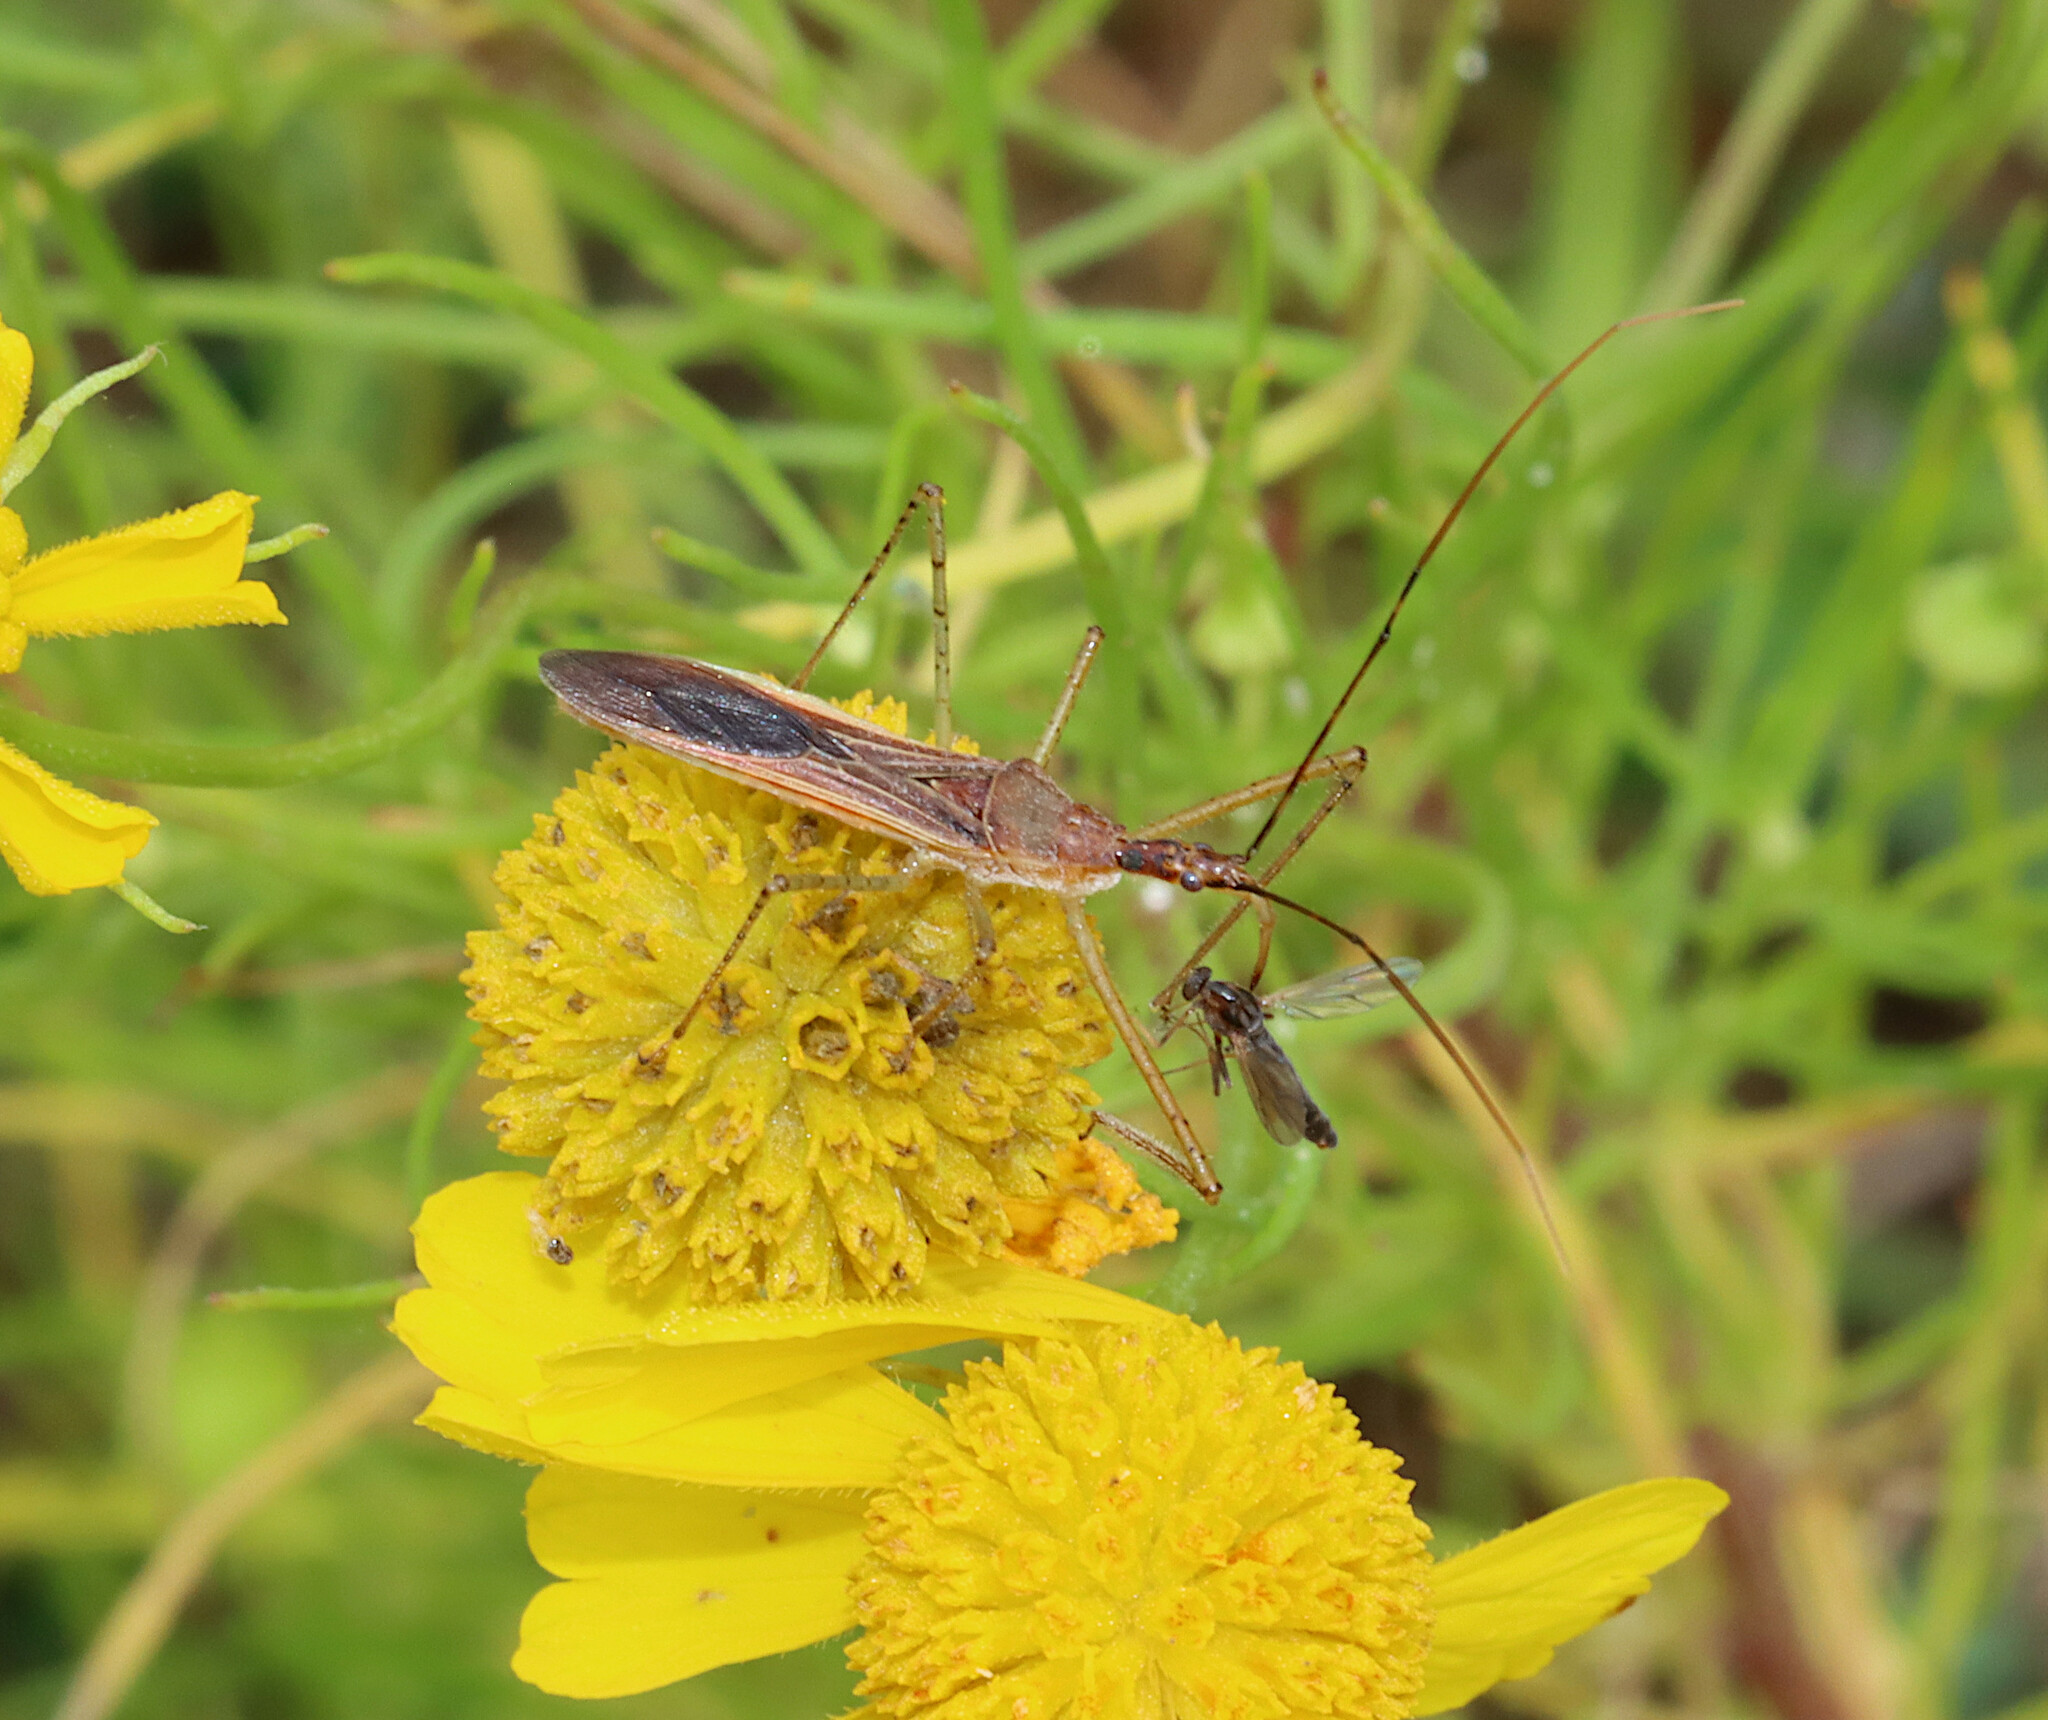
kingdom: Animalia
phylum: Arthropoda
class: Insecta
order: Hemiptera
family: Reduviidae
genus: Zelus
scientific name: Zelus cervicalis
